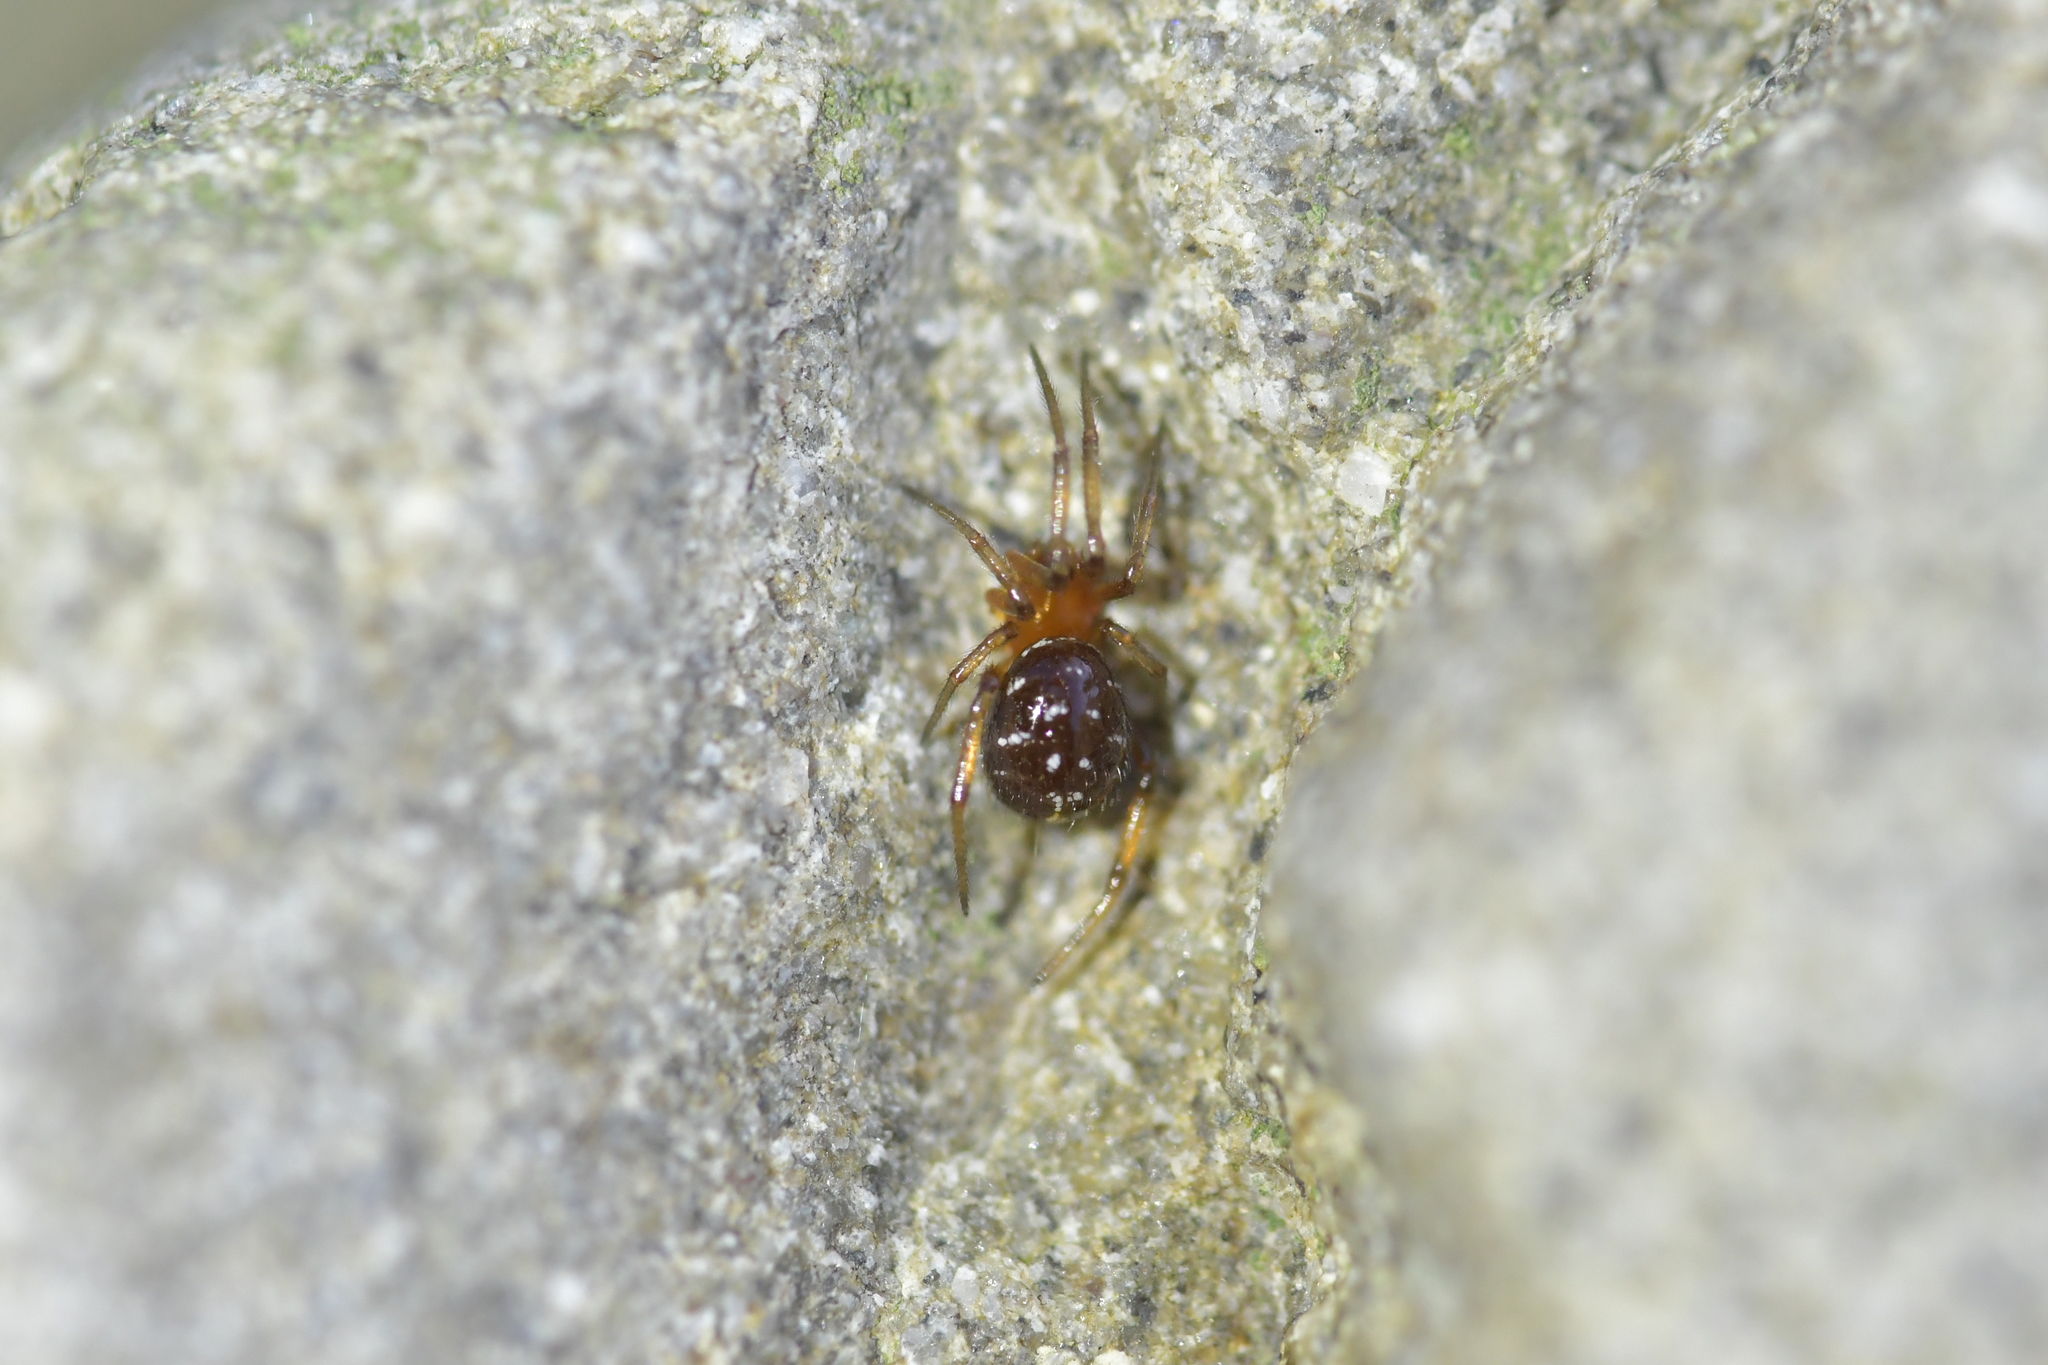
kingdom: Animalia
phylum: Arthropoda
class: Arachnida
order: Araneae
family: Theridiidae
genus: Steatoda
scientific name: Steatoda capensis
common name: Cobweb weaver
